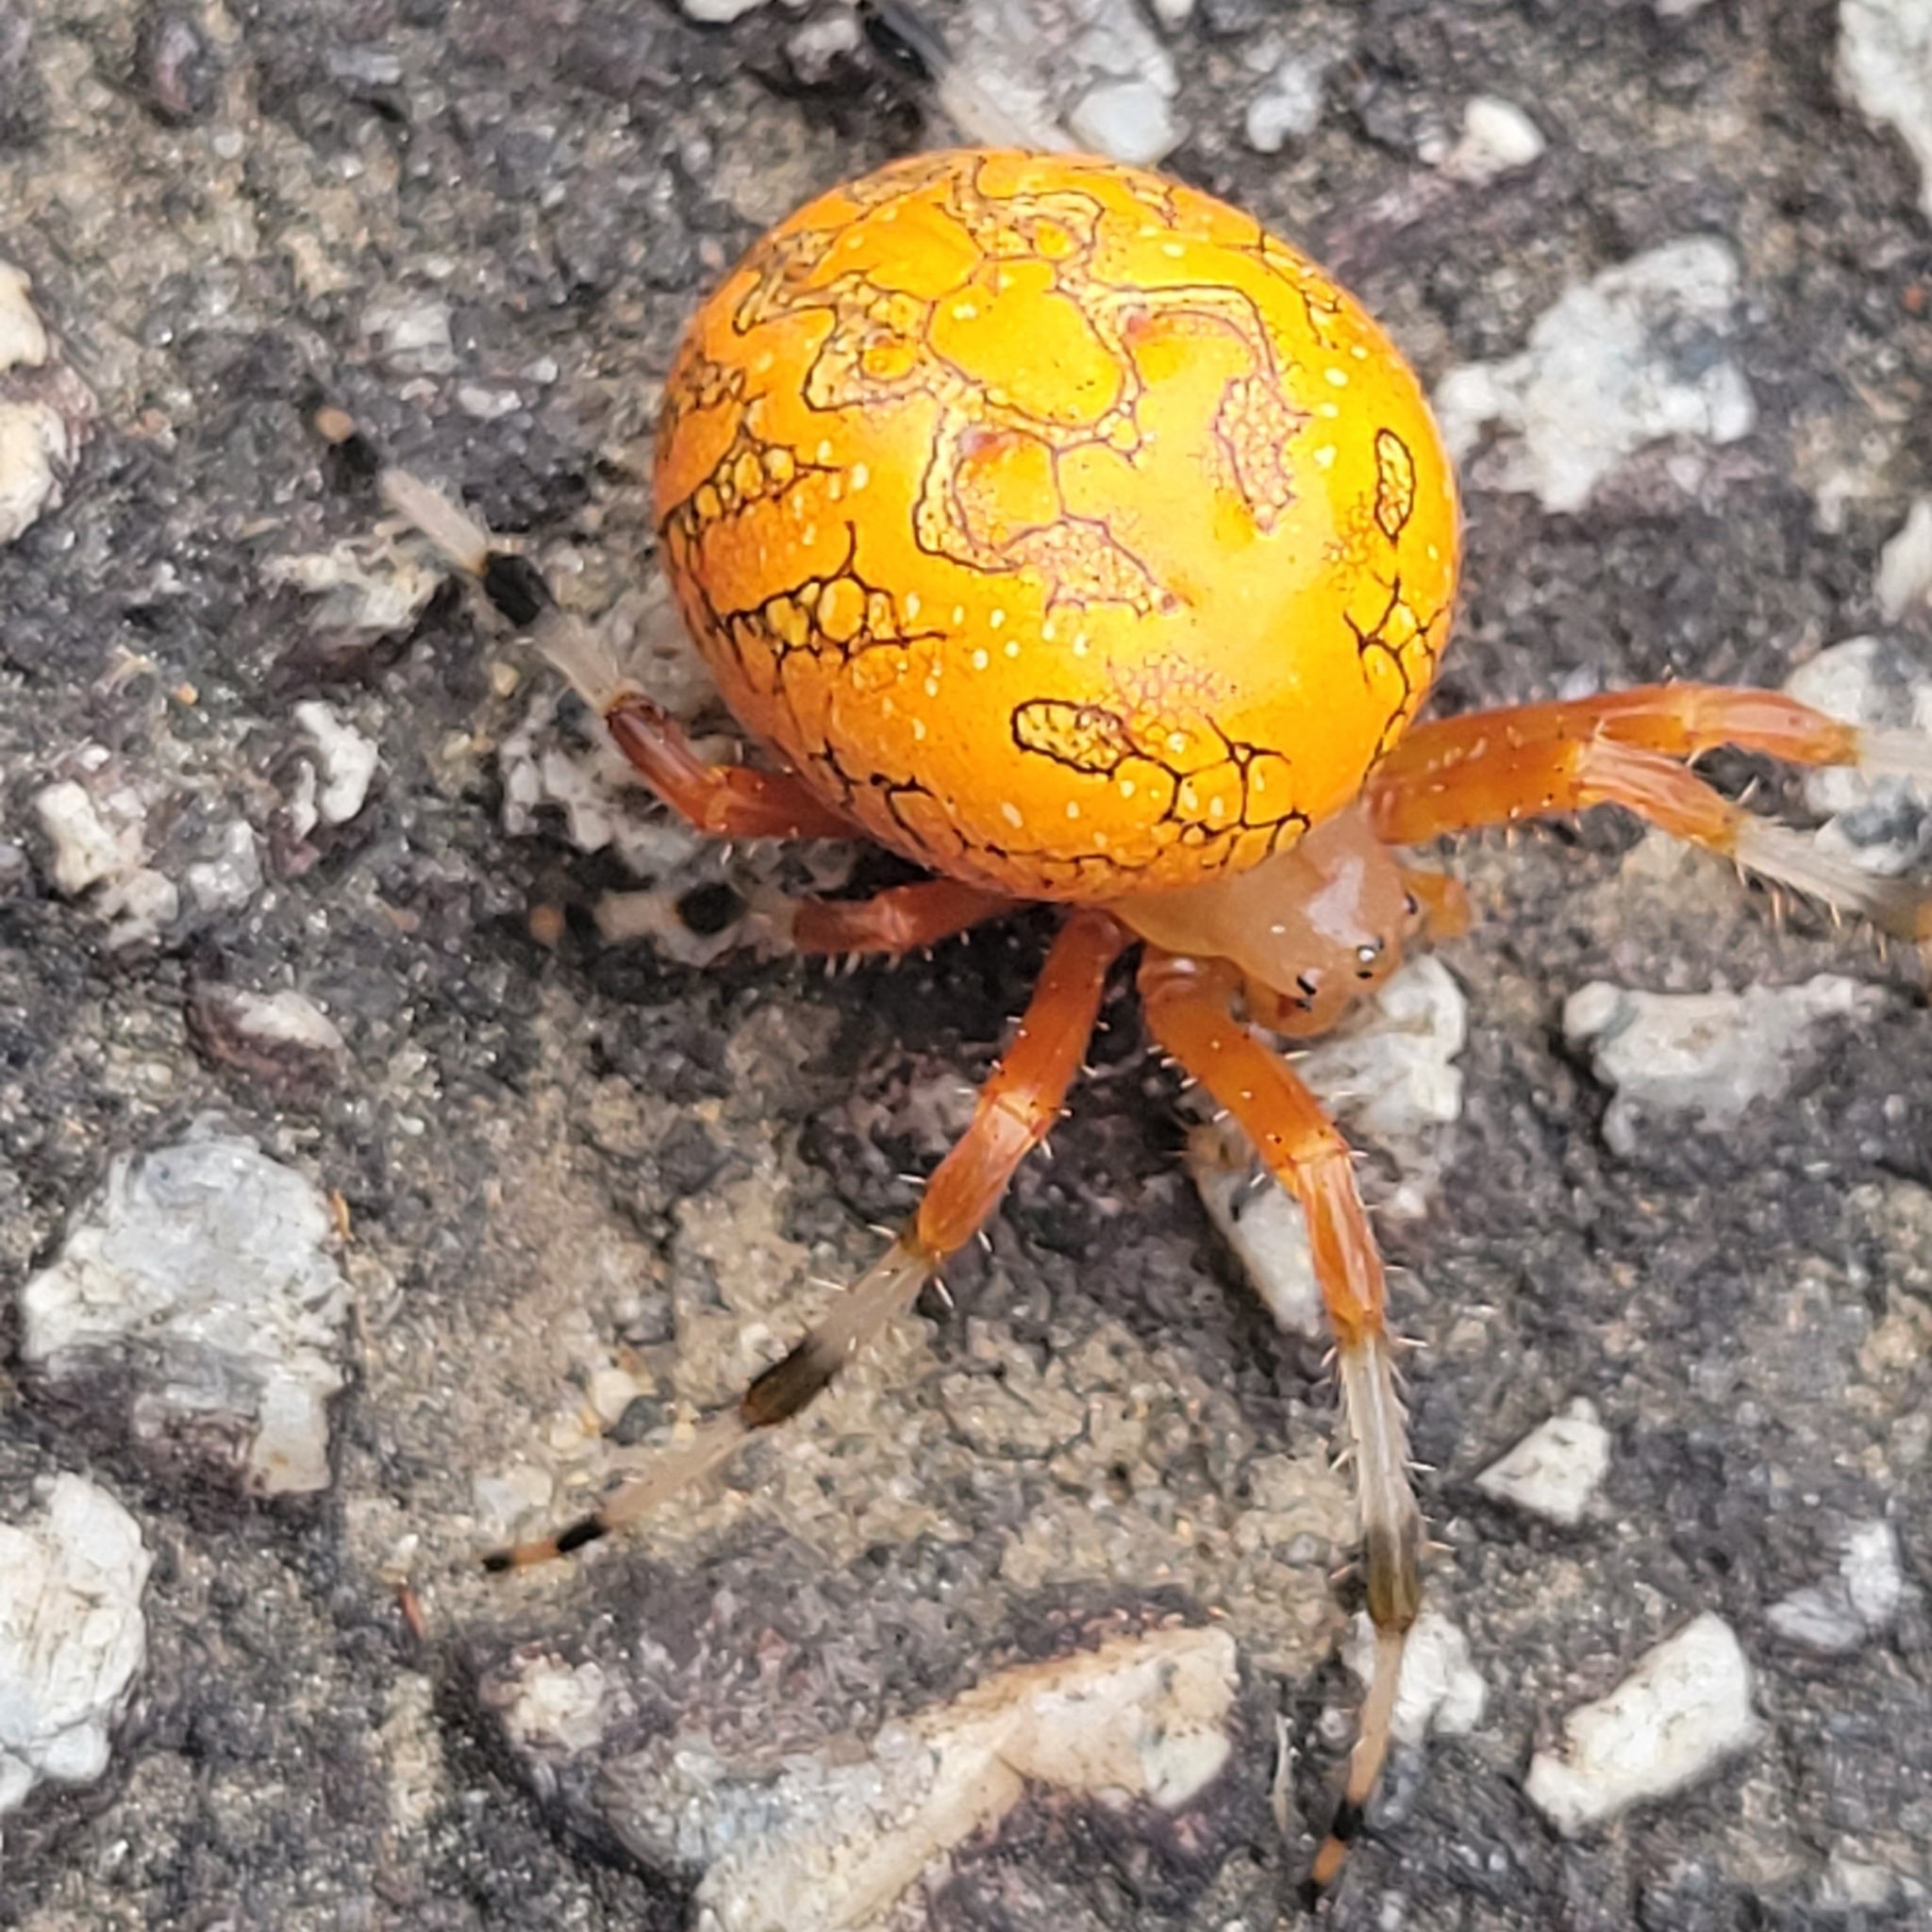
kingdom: Animalia
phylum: Arthropoda
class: Arachnida
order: Araneae
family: Araneidae
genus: Araneus
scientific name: Araneus marmoreus
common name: Marbled orbweaver
